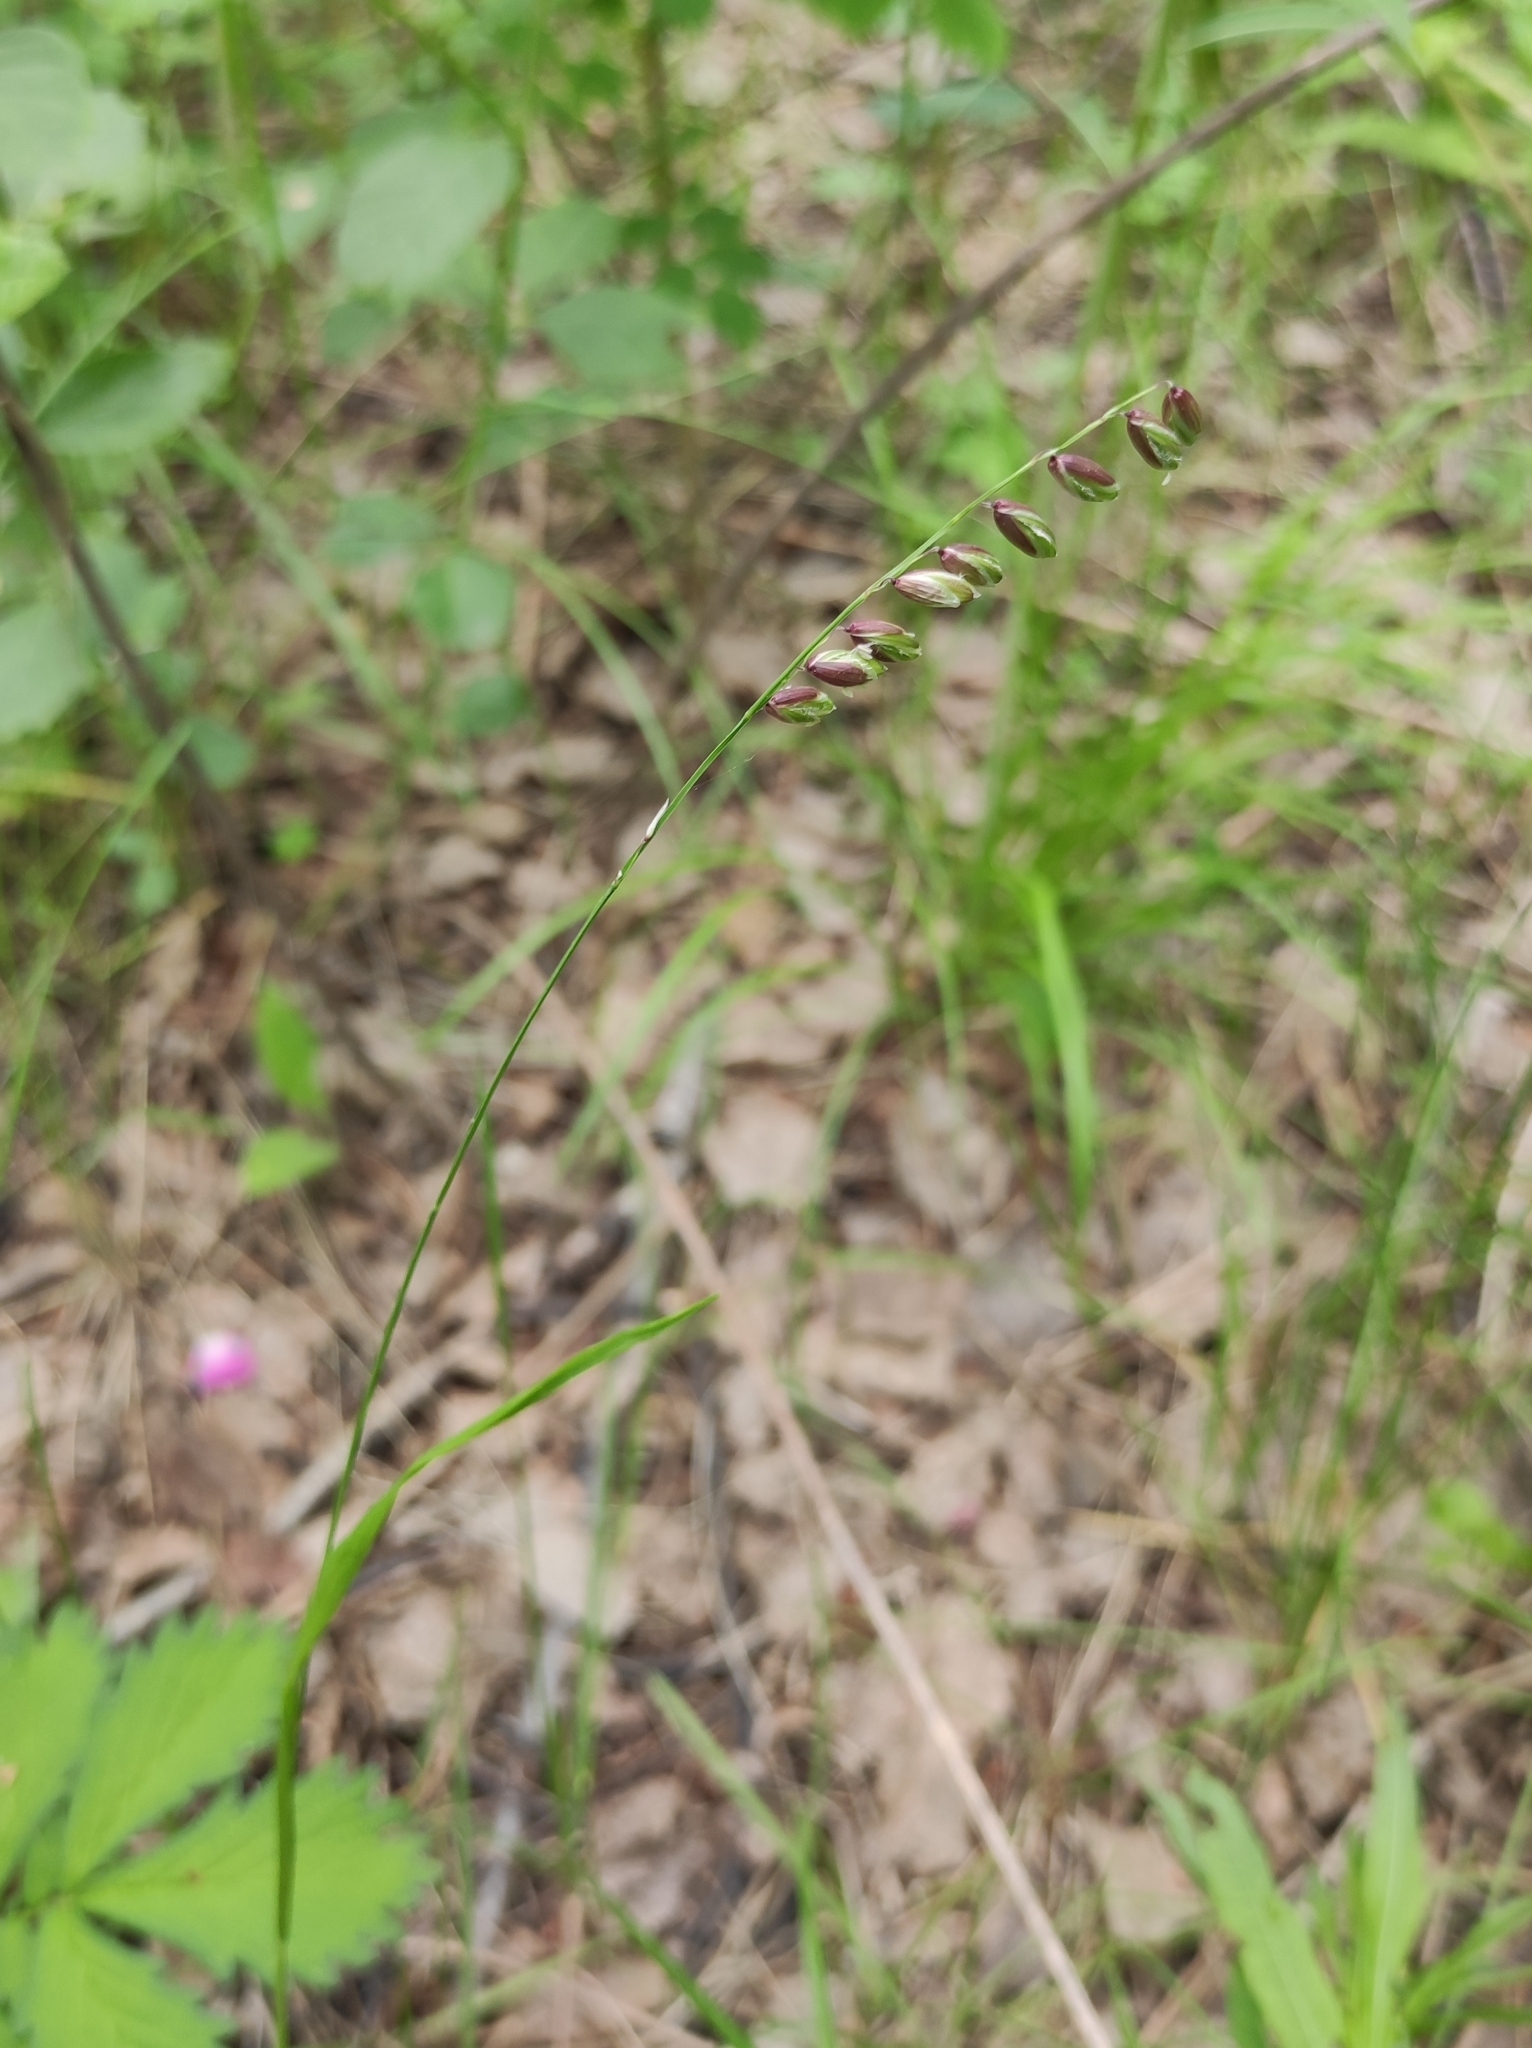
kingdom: Plantae
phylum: Tracheophyta
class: Liliopsida
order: Poales
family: Poaceae
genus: Melica
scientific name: Melica nutans
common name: Mountain melick
